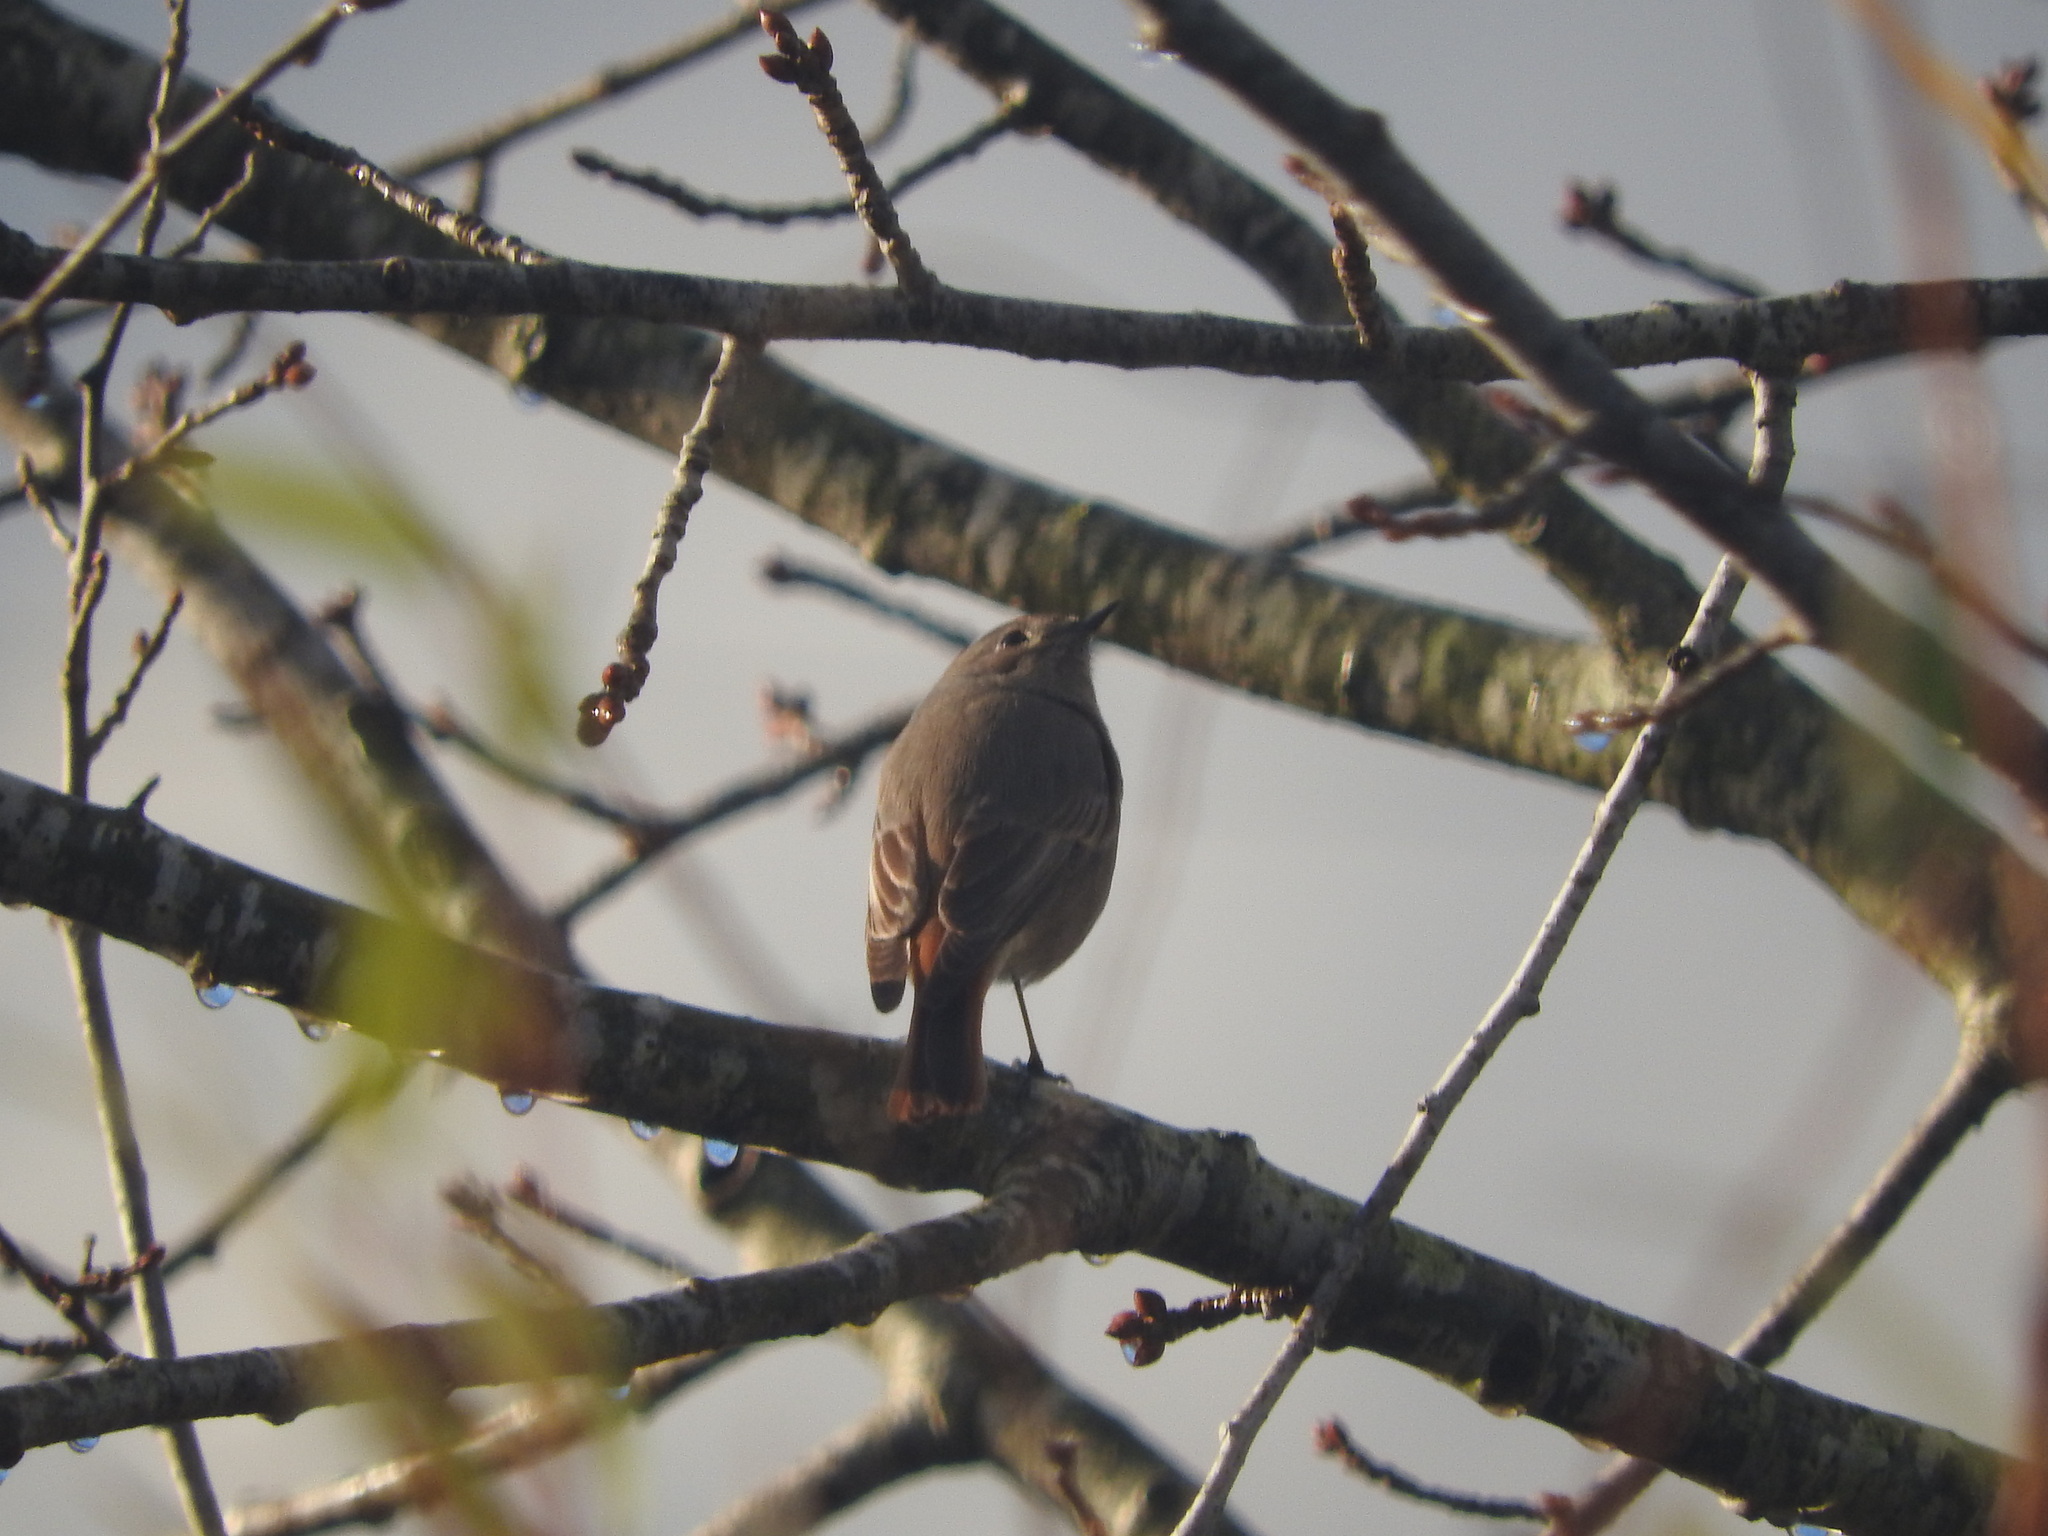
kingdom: Animalia
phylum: Chordata
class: Aves
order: Passeriformes
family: Muscicapidae
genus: Phoenicurus
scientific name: Phoenicurus ochruros
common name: Black redstart
